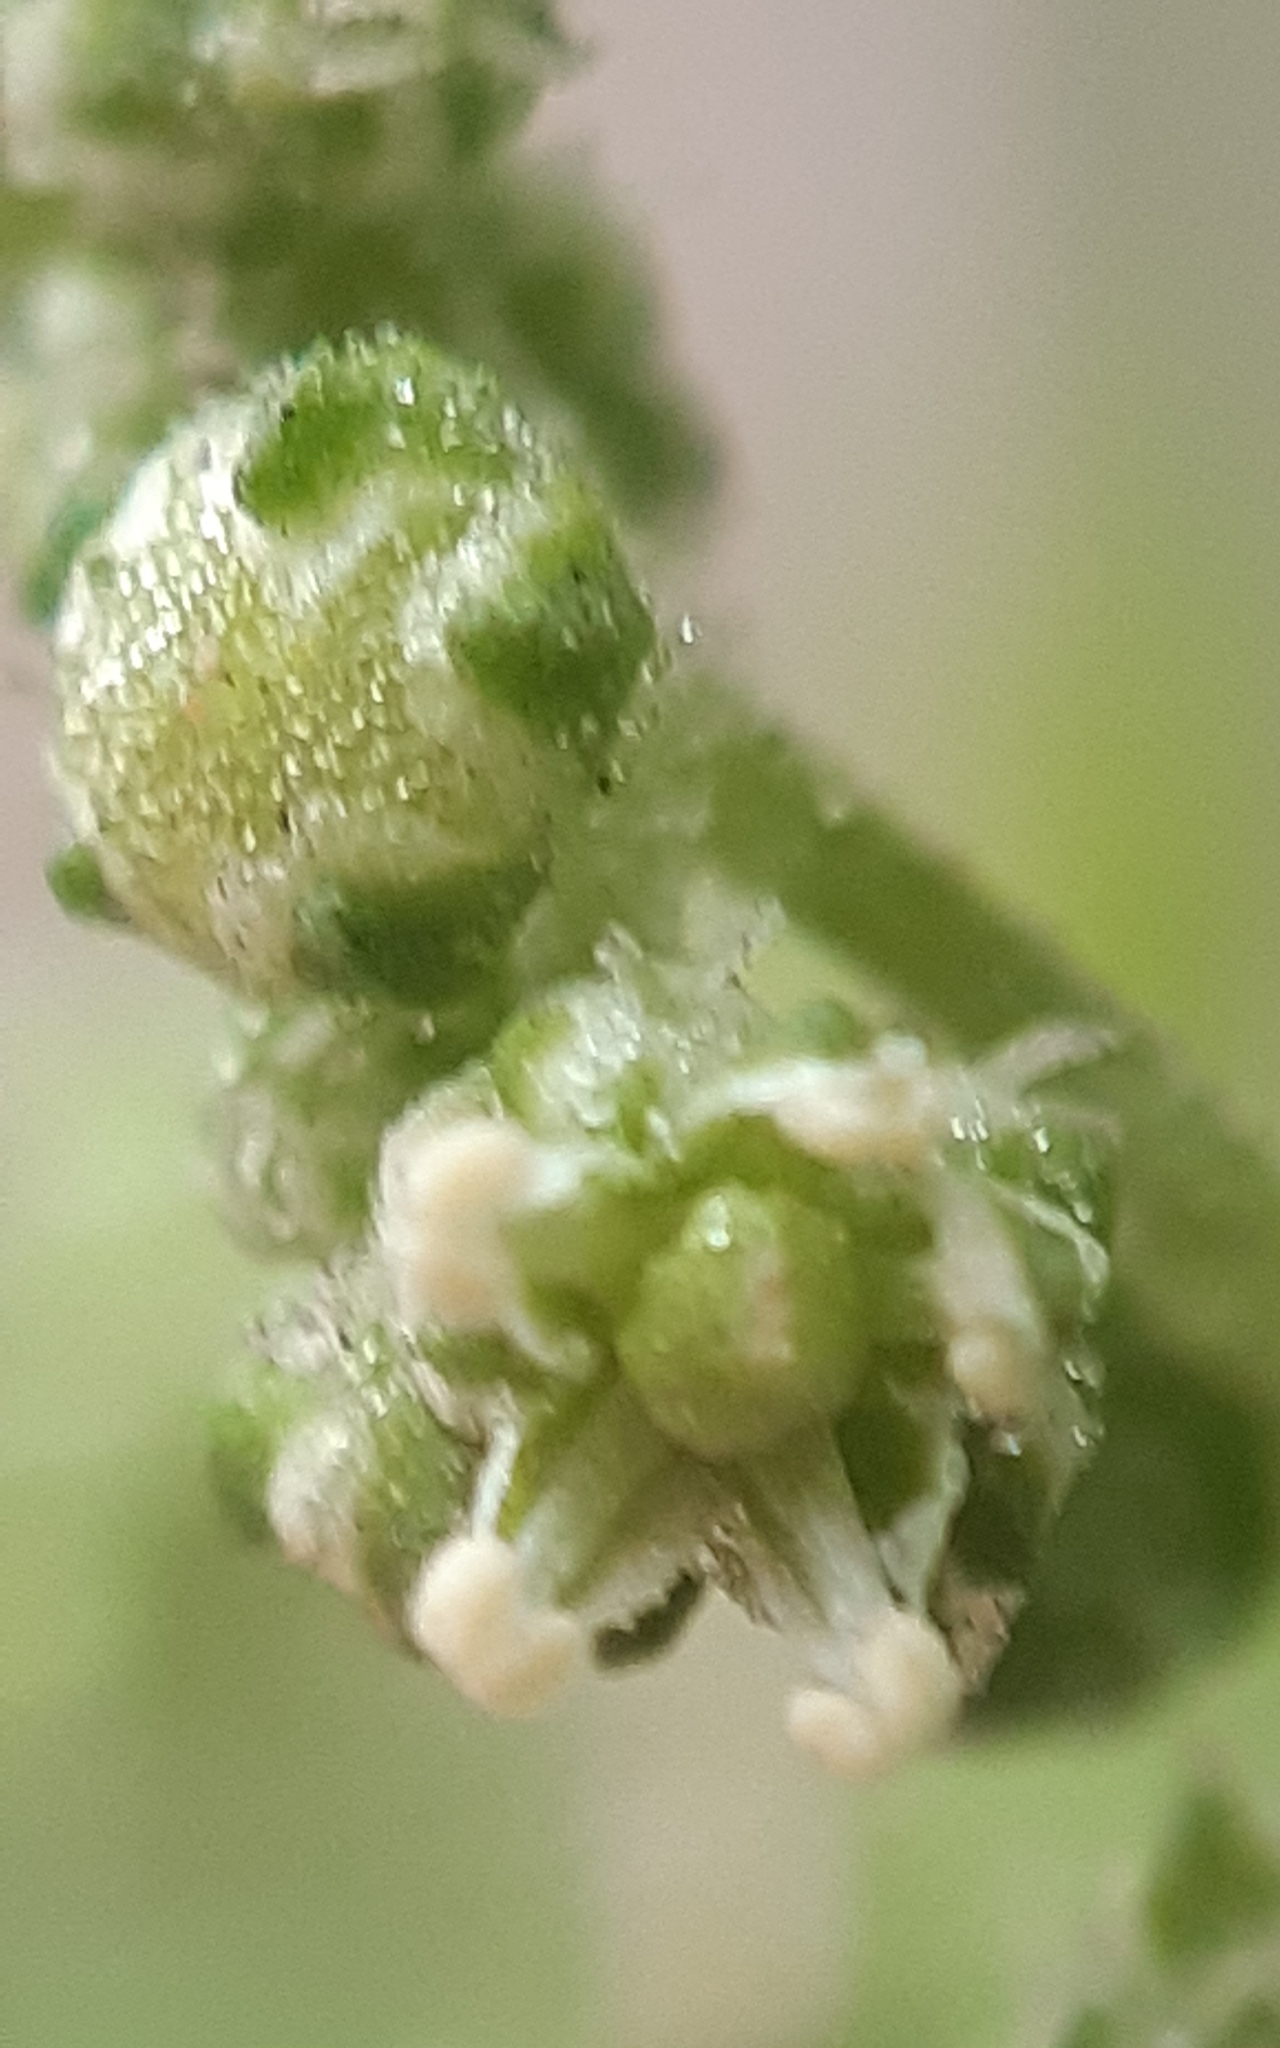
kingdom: Plantae
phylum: Tracheophyta
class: Magnoliopsida
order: Caryophyllales
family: Amaranthaceae
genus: Chenopodiastrum
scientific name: Chenopodiastrum hybridum
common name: Mapleleaf goosefoot
